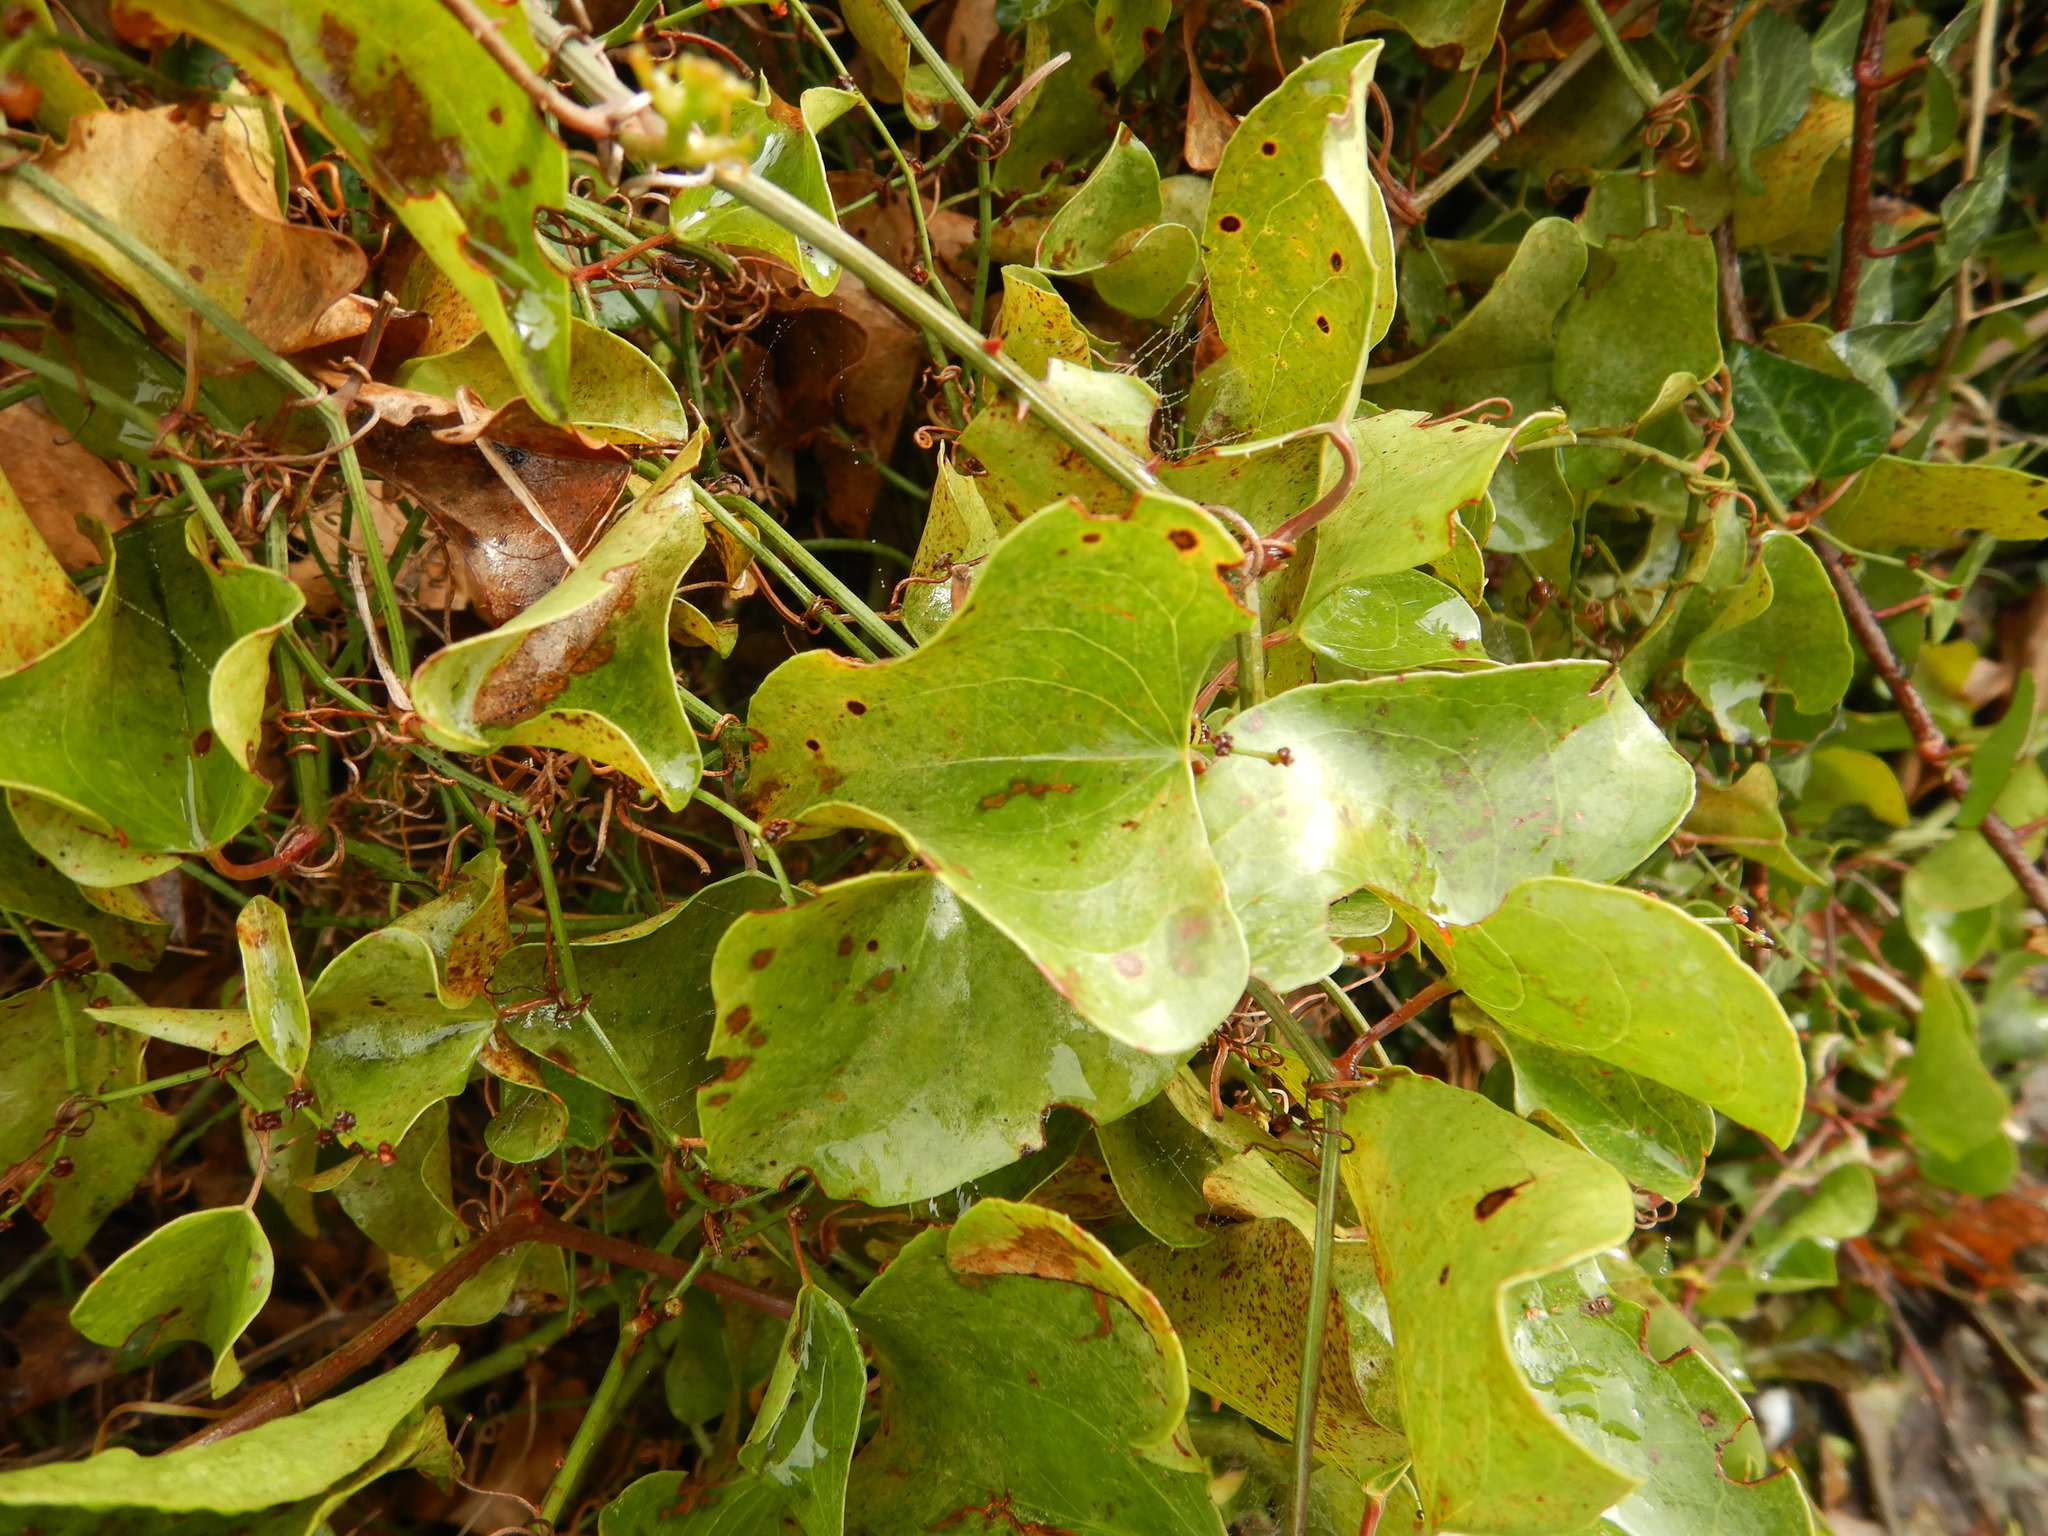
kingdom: Plantae
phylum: Tracheophyta
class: Liliopsida
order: Liliales
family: Smilacaceae
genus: Smilax
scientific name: Smilax aspera
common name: Common smilax
